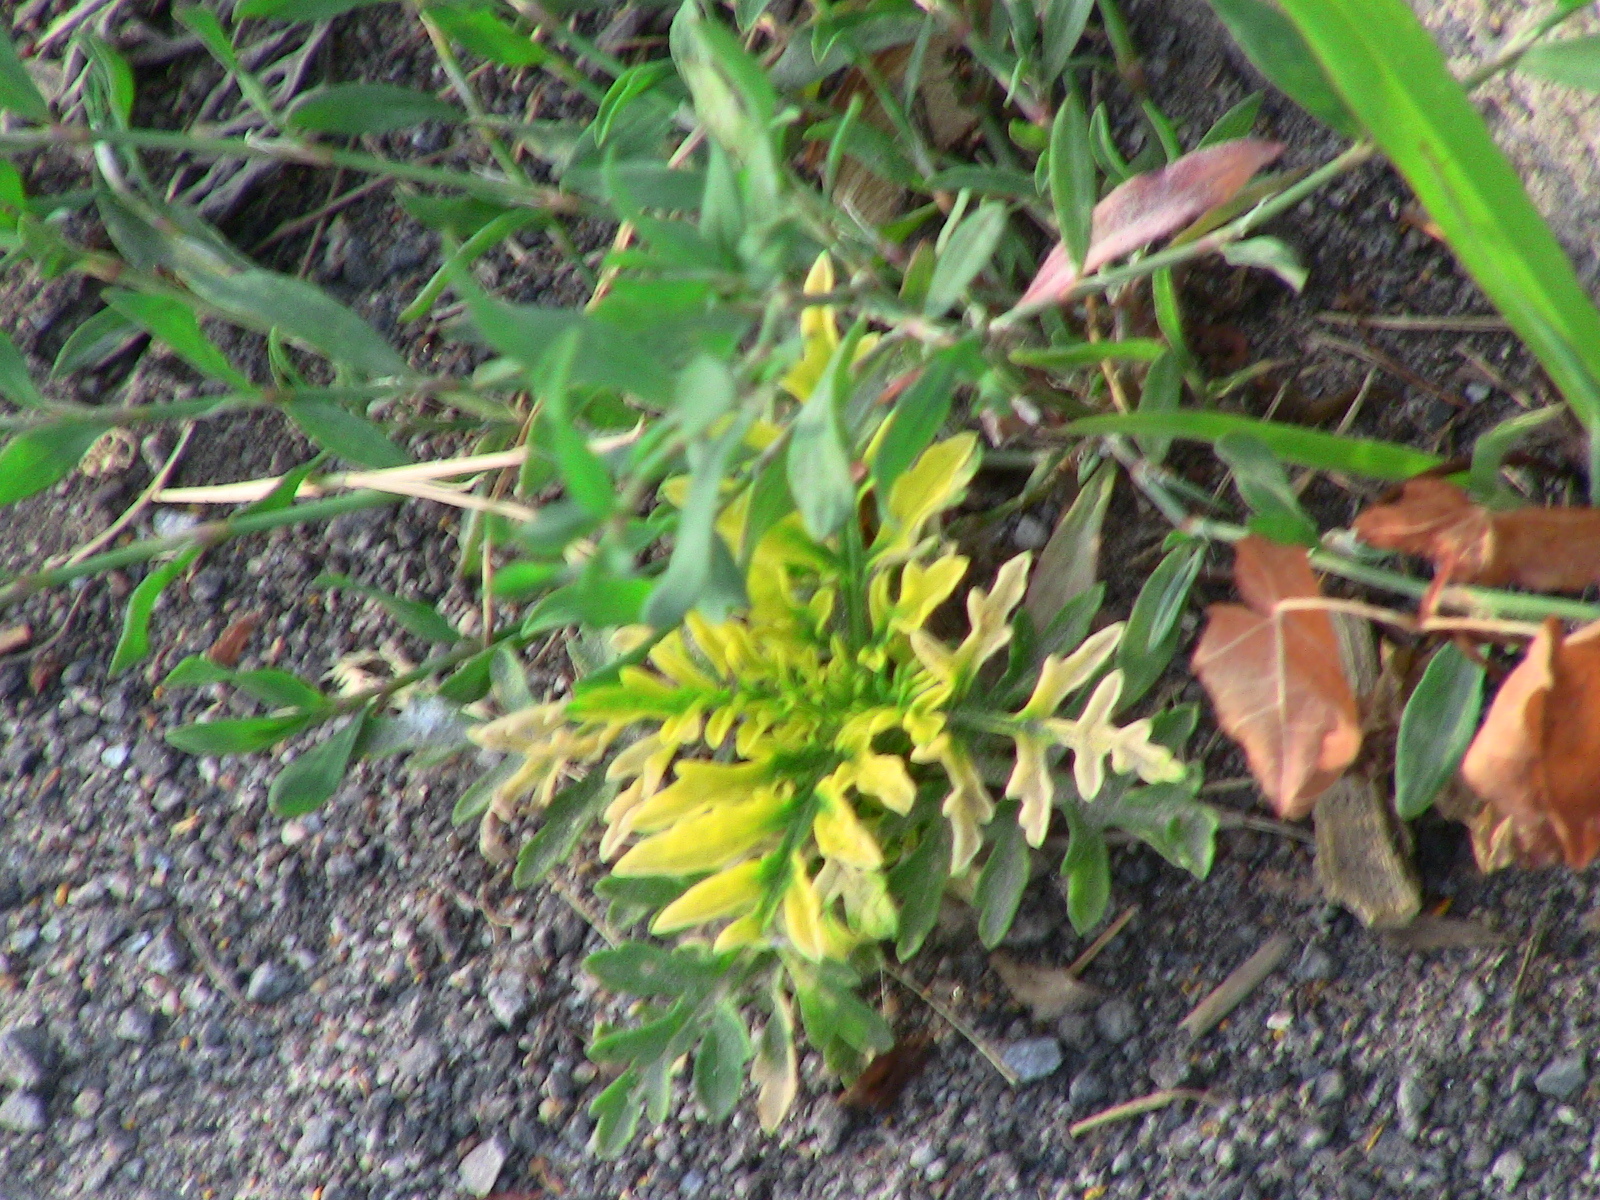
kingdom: Plantae
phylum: Tracheophyta
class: Magnoliopsida
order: Asterales
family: Asteraceae
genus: Ambrosia
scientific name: Ambrosia artemisiifolia
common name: Annual ragweed
